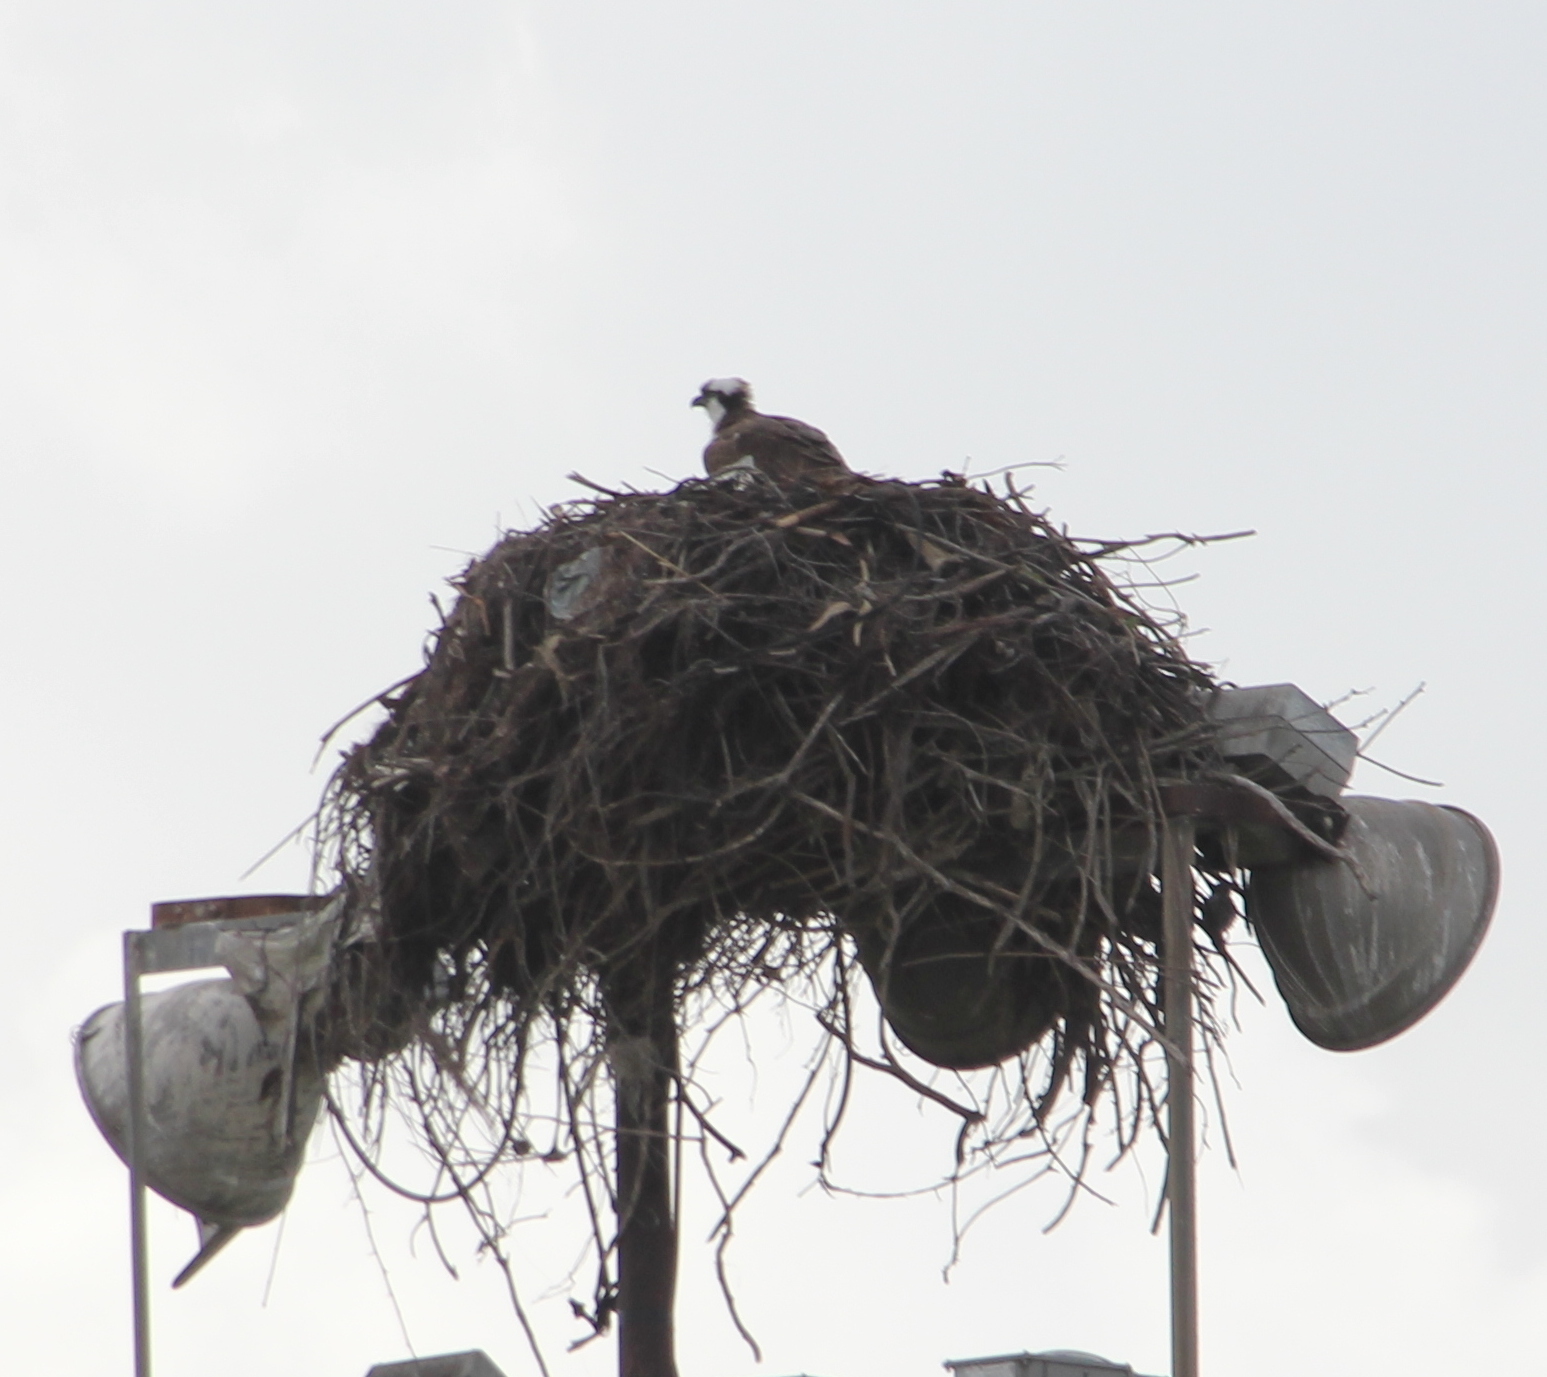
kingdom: Animalia
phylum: Chordata
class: Aves
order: Accipitriformes
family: Pandionidae
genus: Pandion
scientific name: Pandion haliaetus
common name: Osprey
